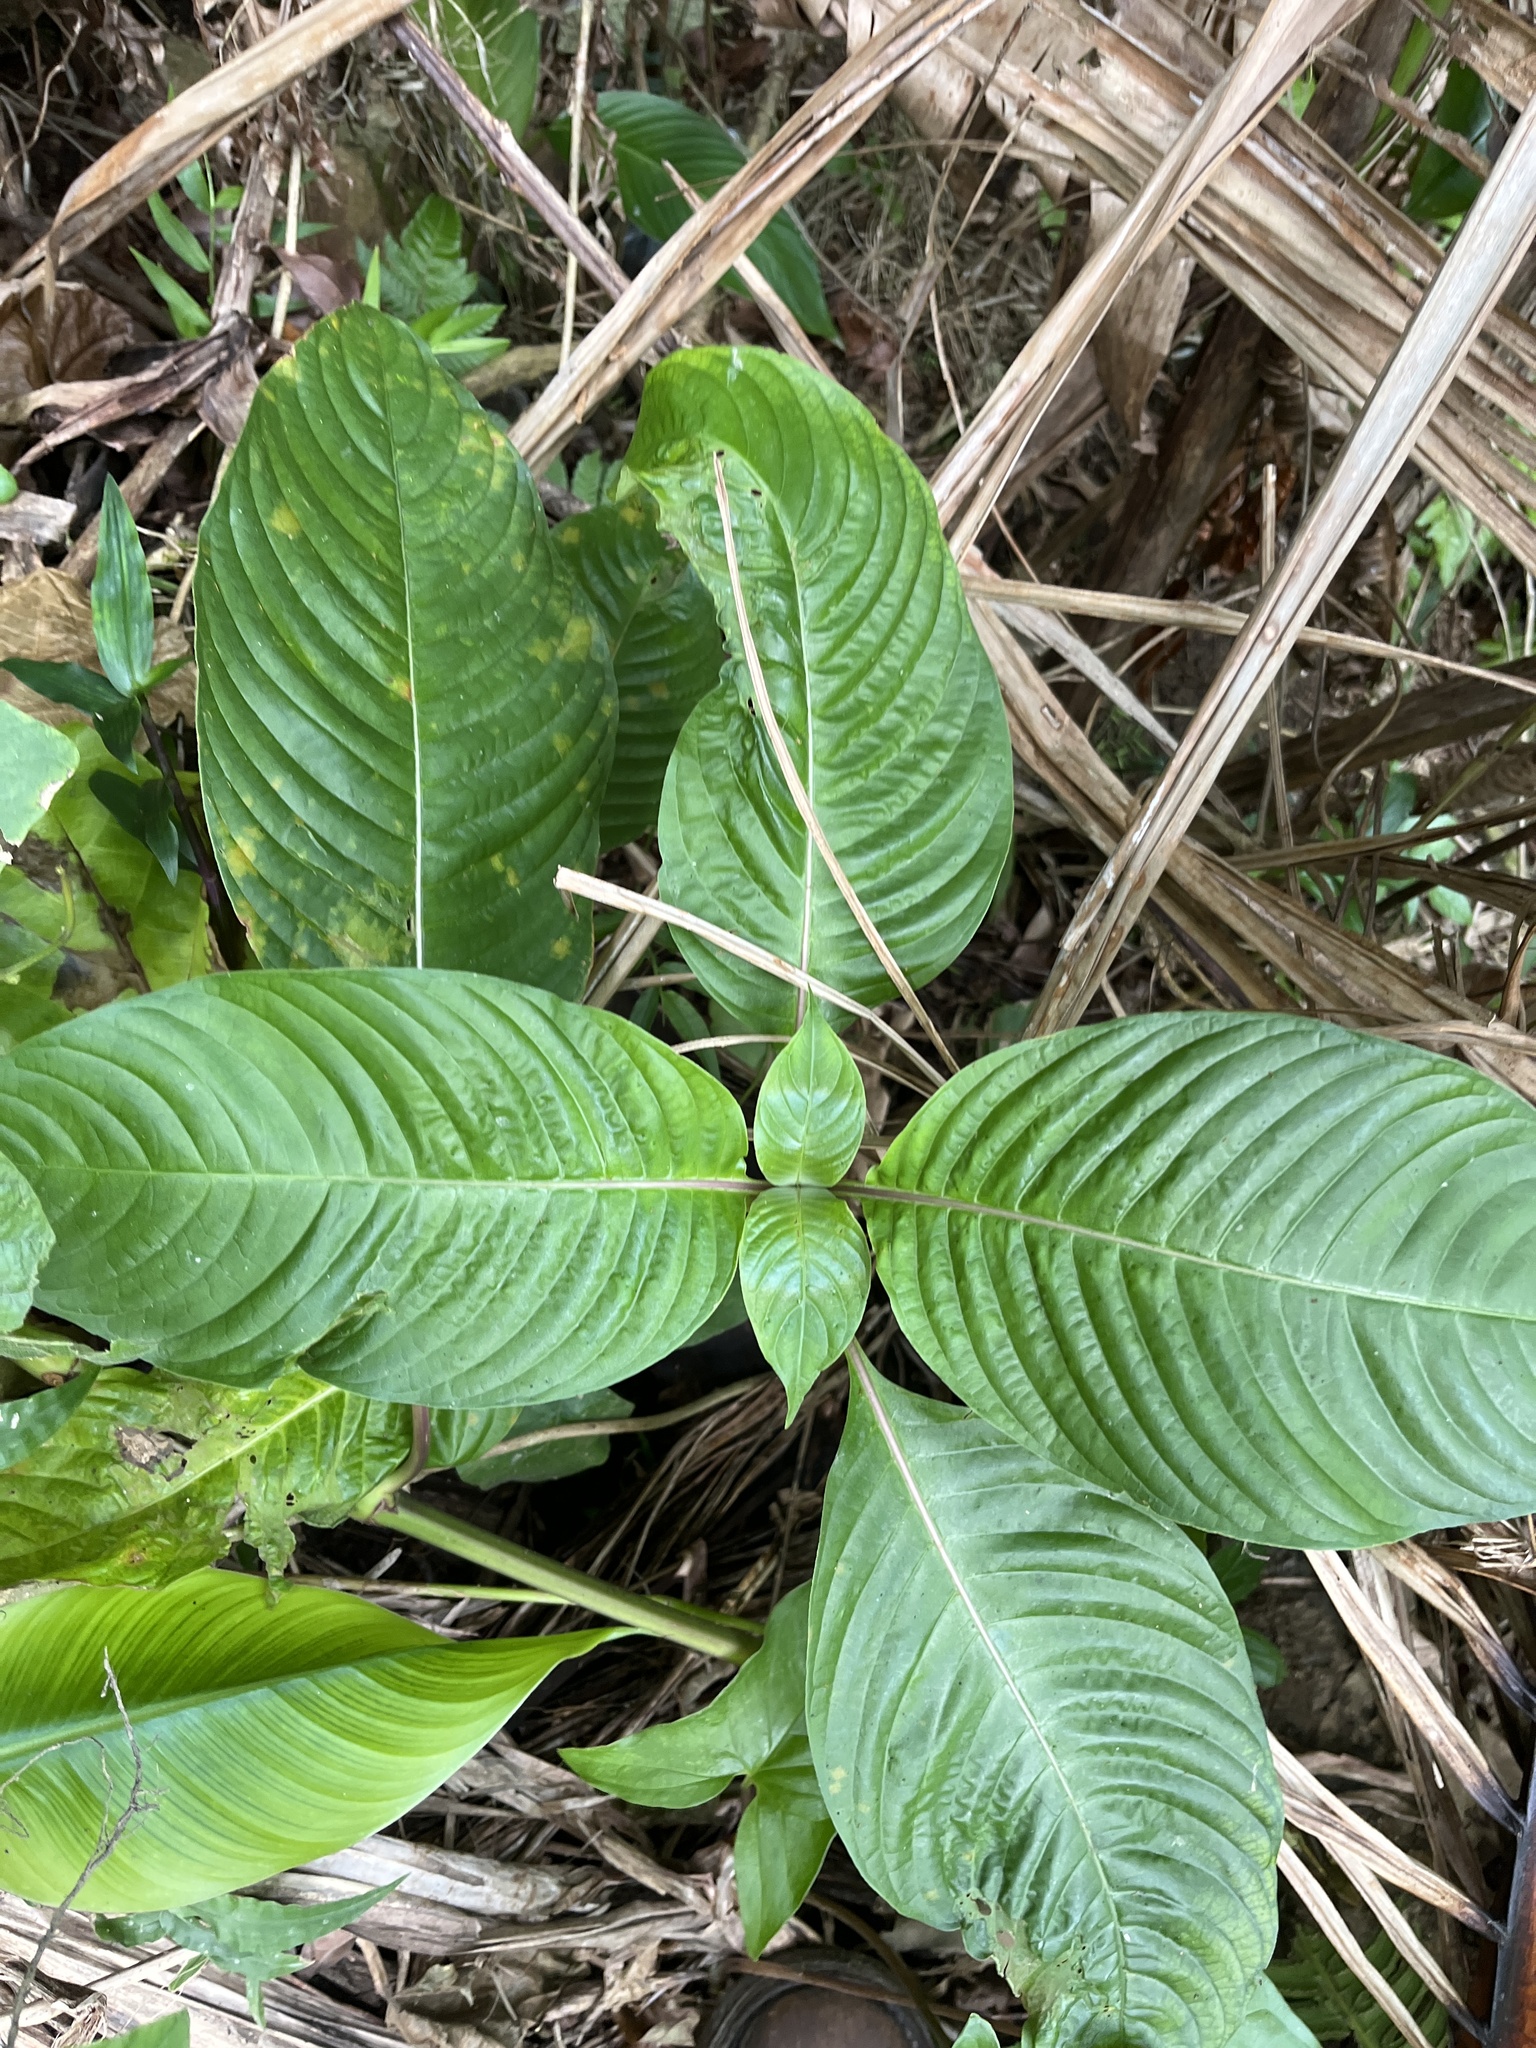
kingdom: Plantae
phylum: Tracheophyta
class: Magnoliopsida
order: Gentianales
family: Rubiaceae
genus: Palicourea
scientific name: Palicourea berteroana
